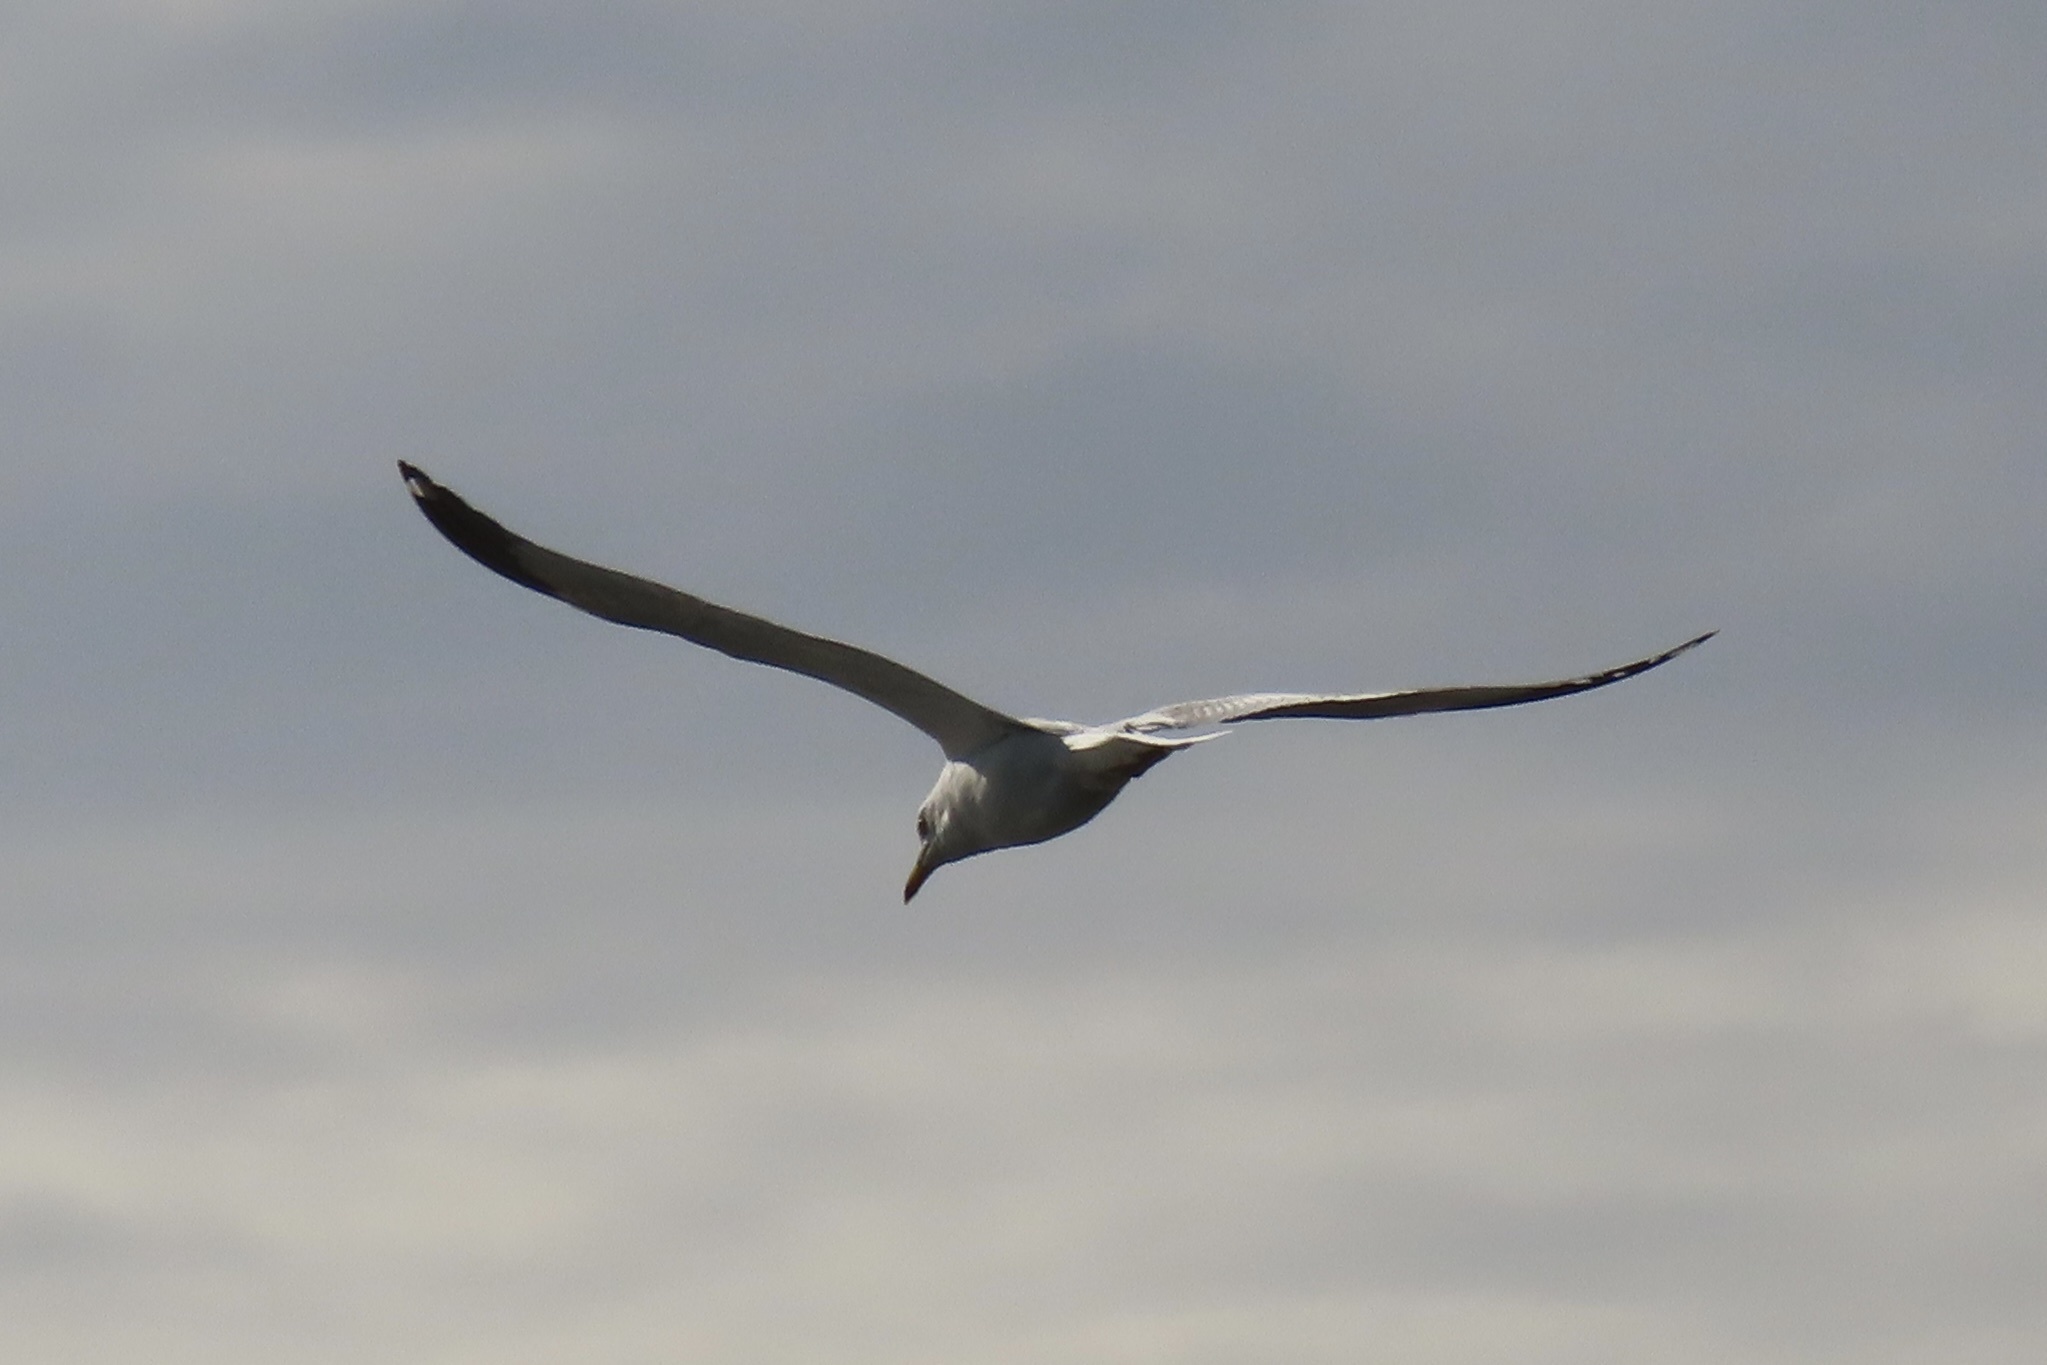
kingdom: Animalia
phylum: Chordata
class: Aves
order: Charadriiformes
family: Laridae
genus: Larus
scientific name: Larus delawarensis
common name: Ring-billed gull
